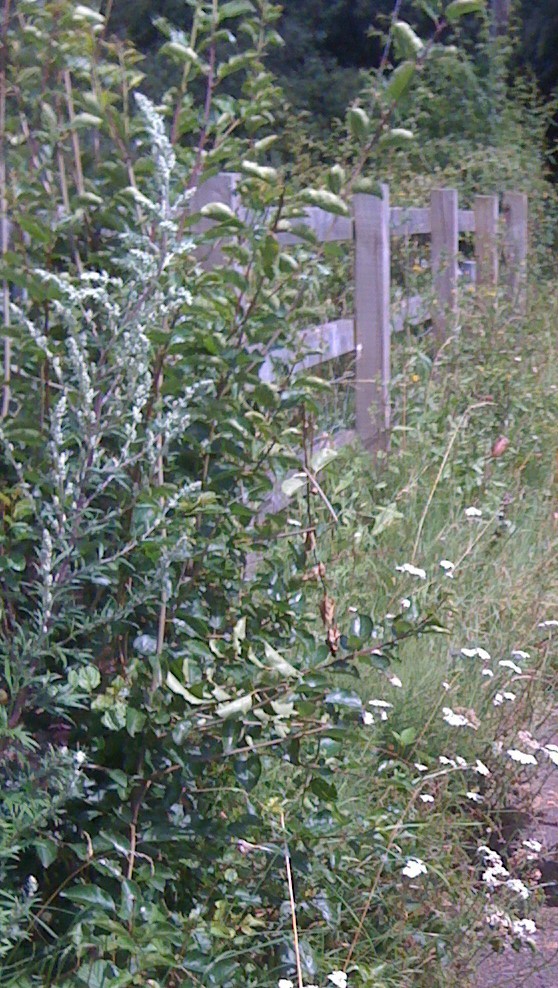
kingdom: Plantae
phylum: Tracheophyta
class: Magnoliopsida
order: Asterales
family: Asteraceae
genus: Artemisia
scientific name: Artemisia vulgaris
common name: Mugwort
